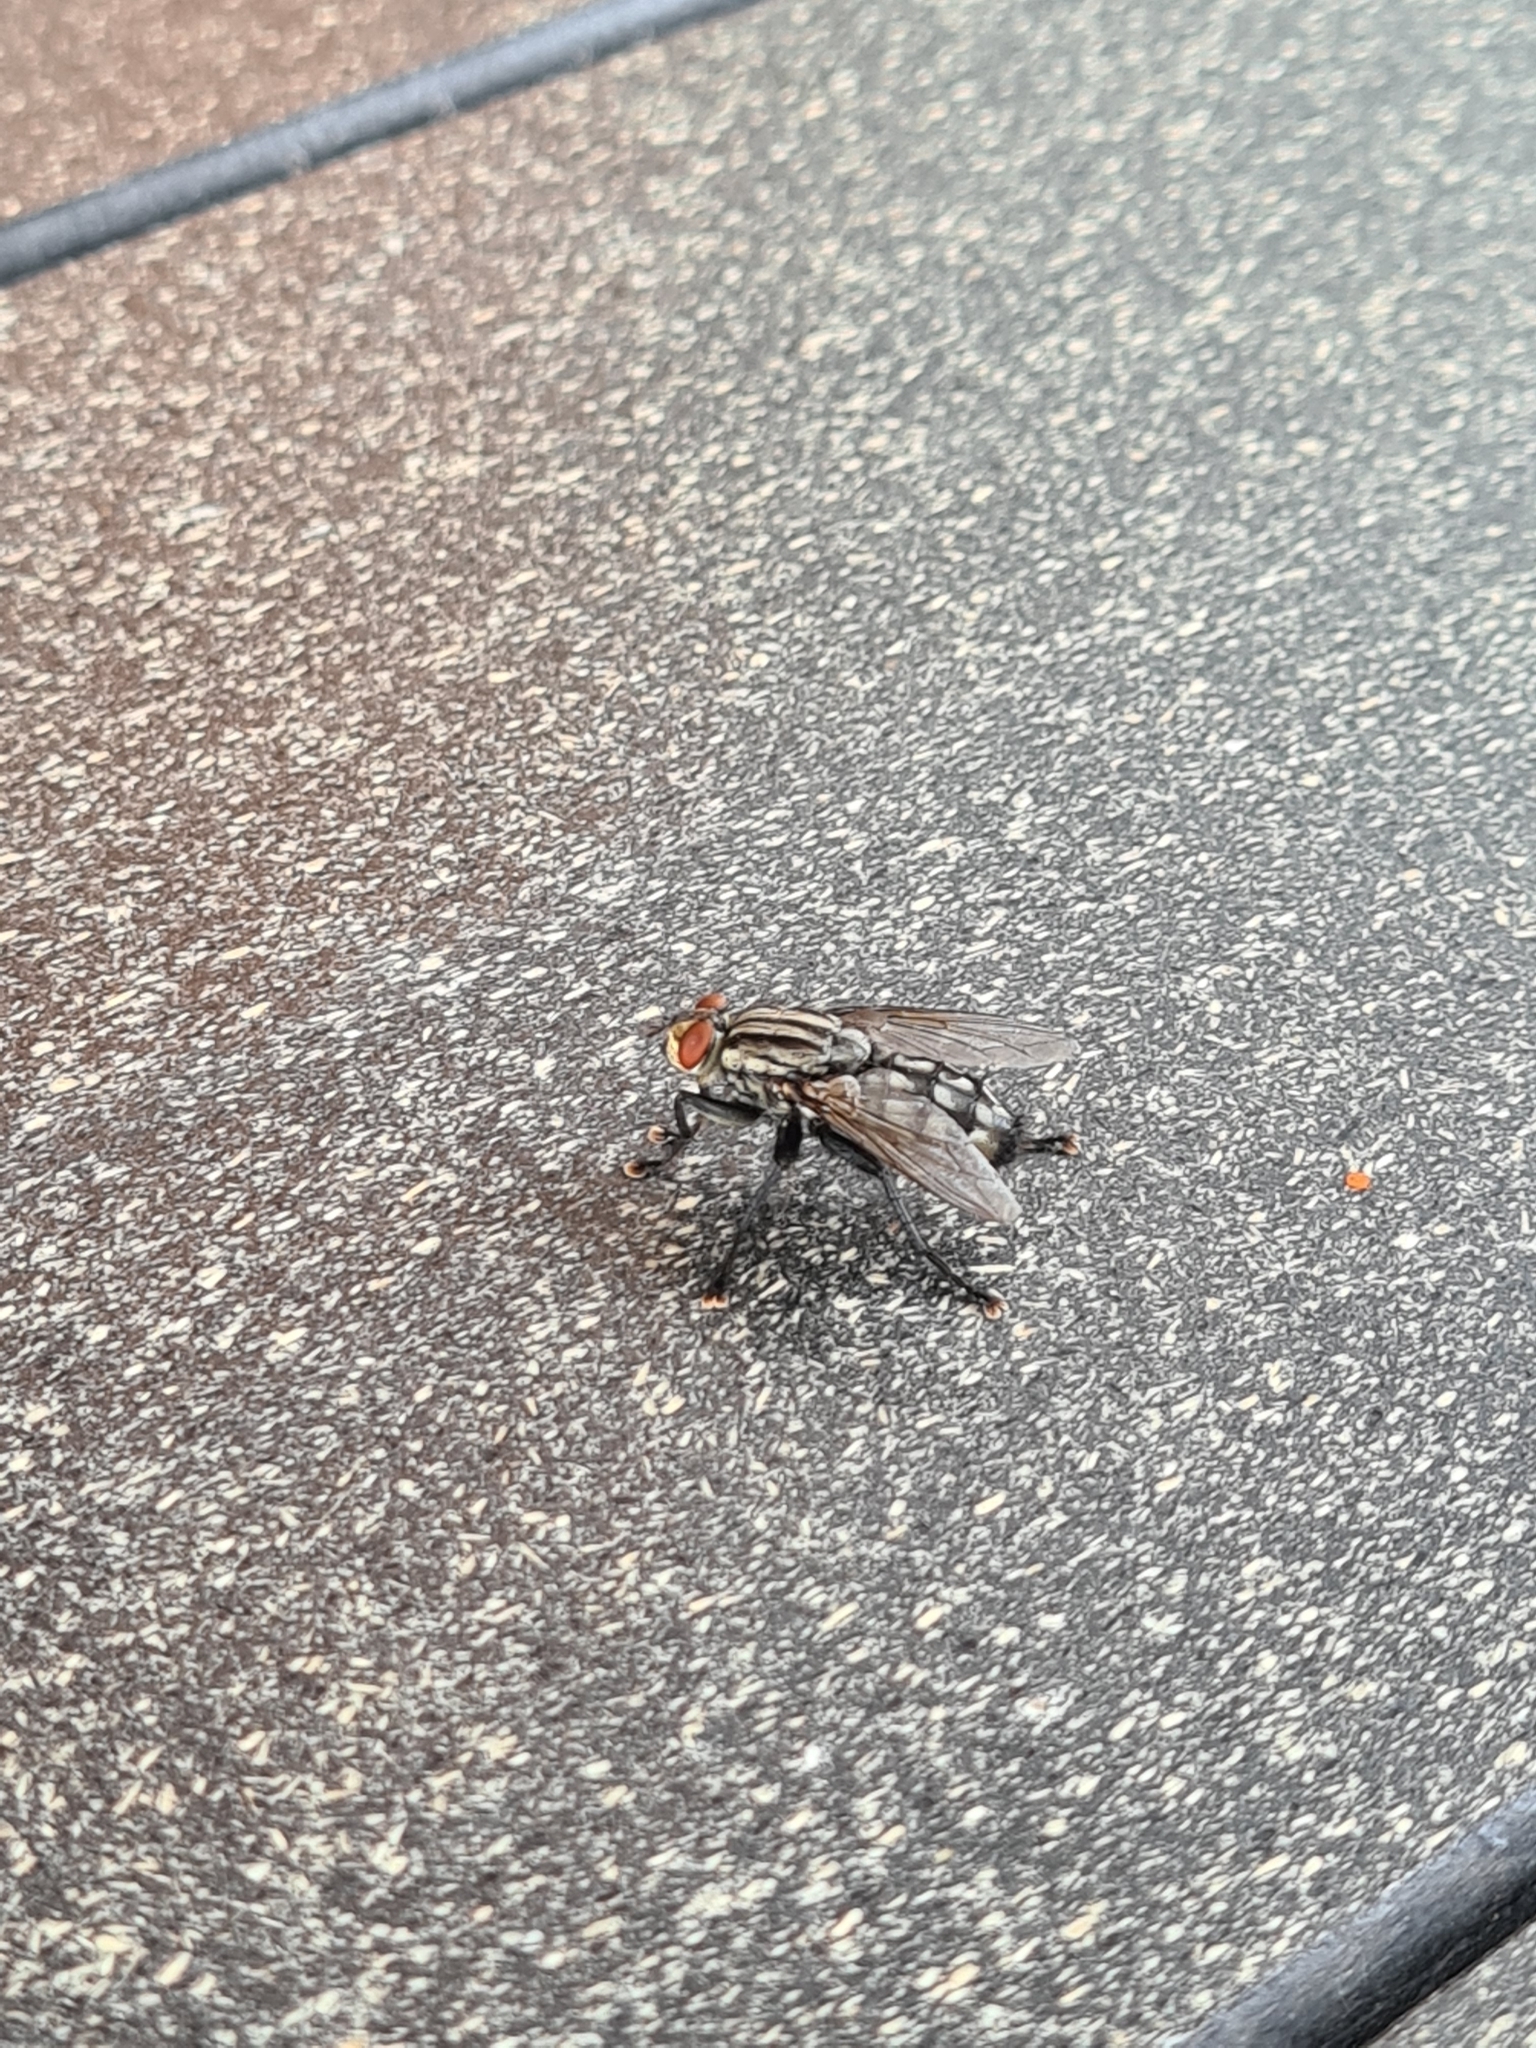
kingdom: Animalia
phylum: Arthropoda
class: Insecta
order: Diptera
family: Sarcophagidae
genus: Sarcophaga
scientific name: Sarcophaga
